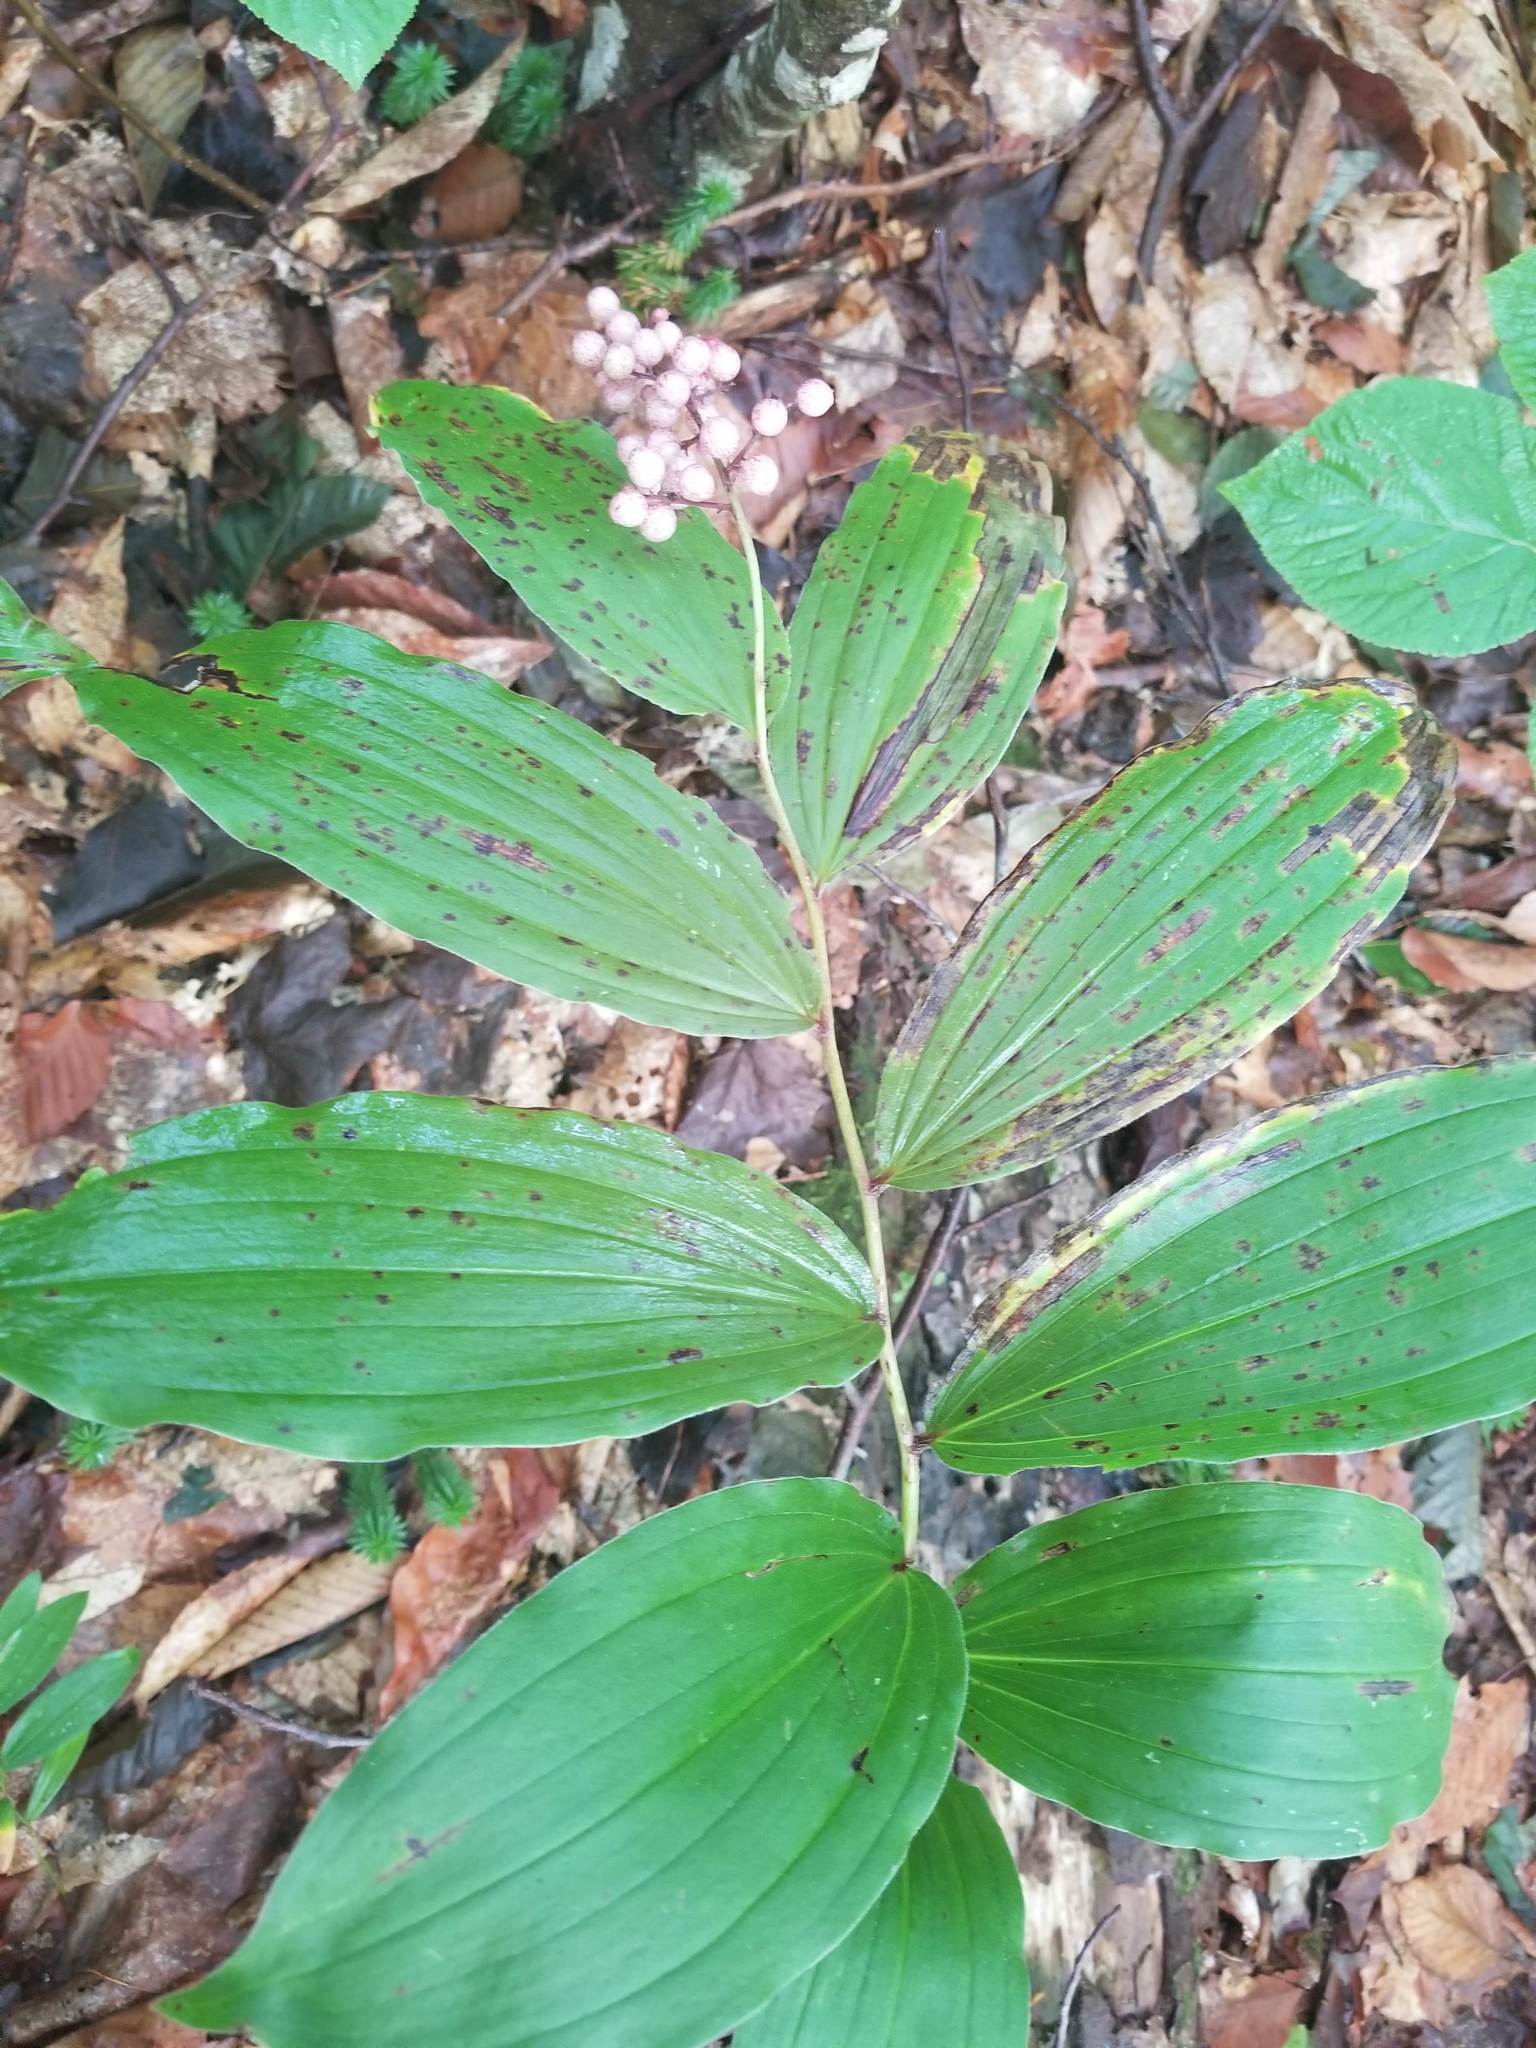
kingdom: Plantae
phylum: Tracheophyta
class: Liliopsida
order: Asparagales
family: Asparagaceae
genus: Maianthemum
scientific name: Maianthemum racemosum
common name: False spikenard
